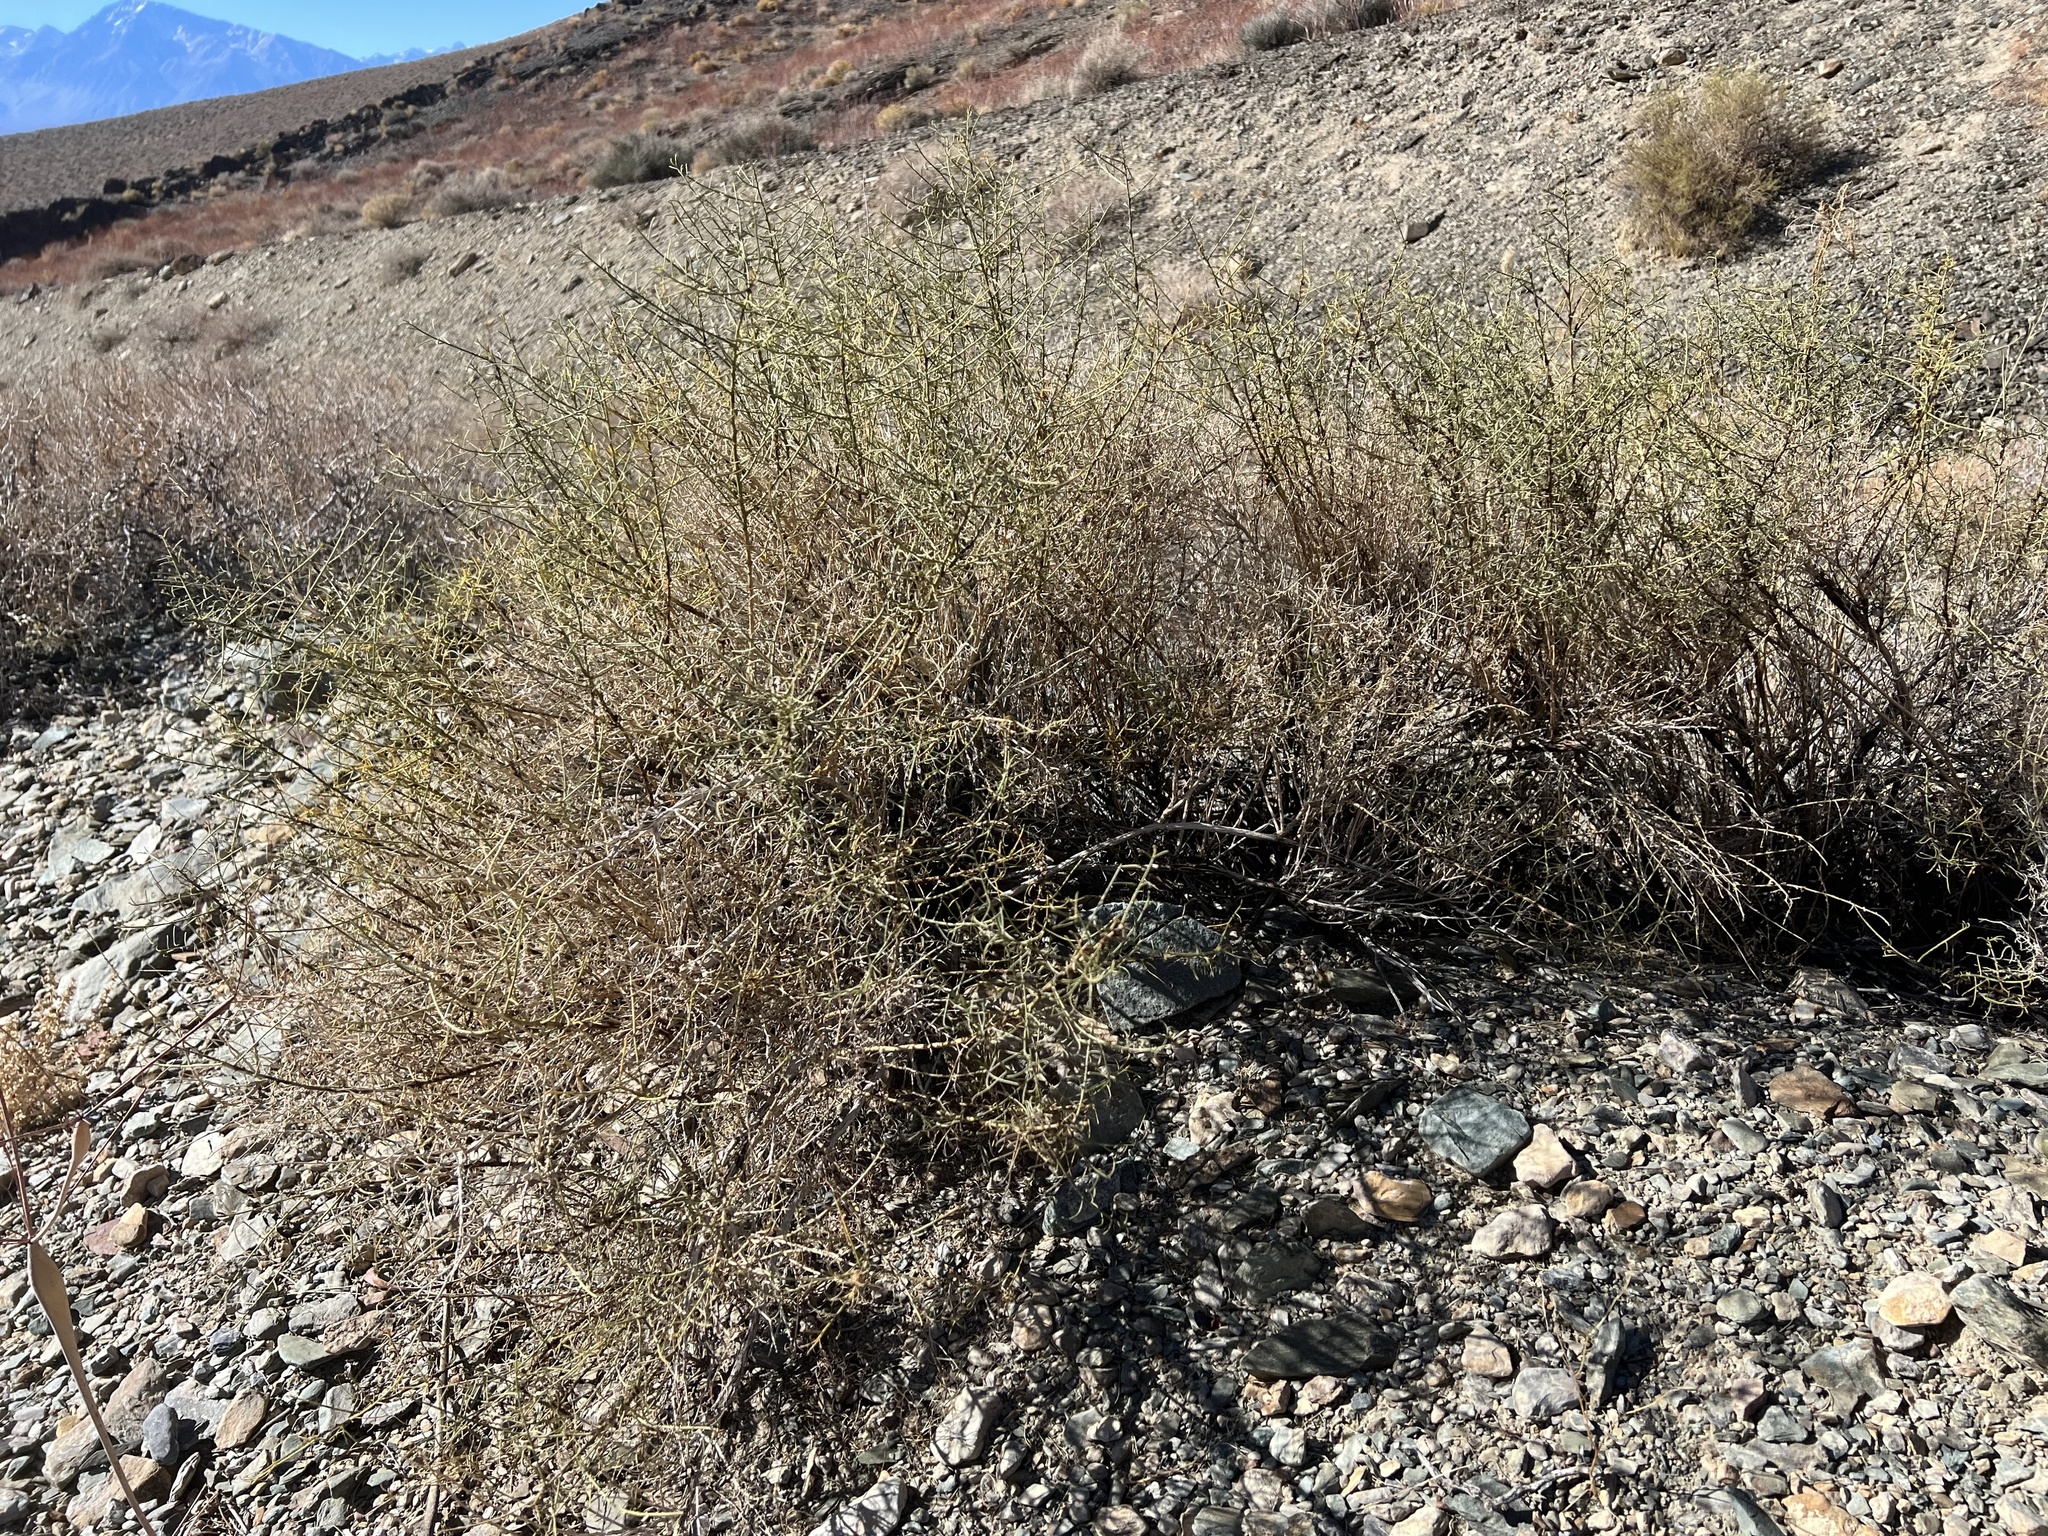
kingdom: Plantae
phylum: Tracheophyta
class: Magnoliopsida
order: Asterales
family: Asteraceae
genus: Ambrosia
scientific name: Ambrosia salsola
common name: Burrobrush
